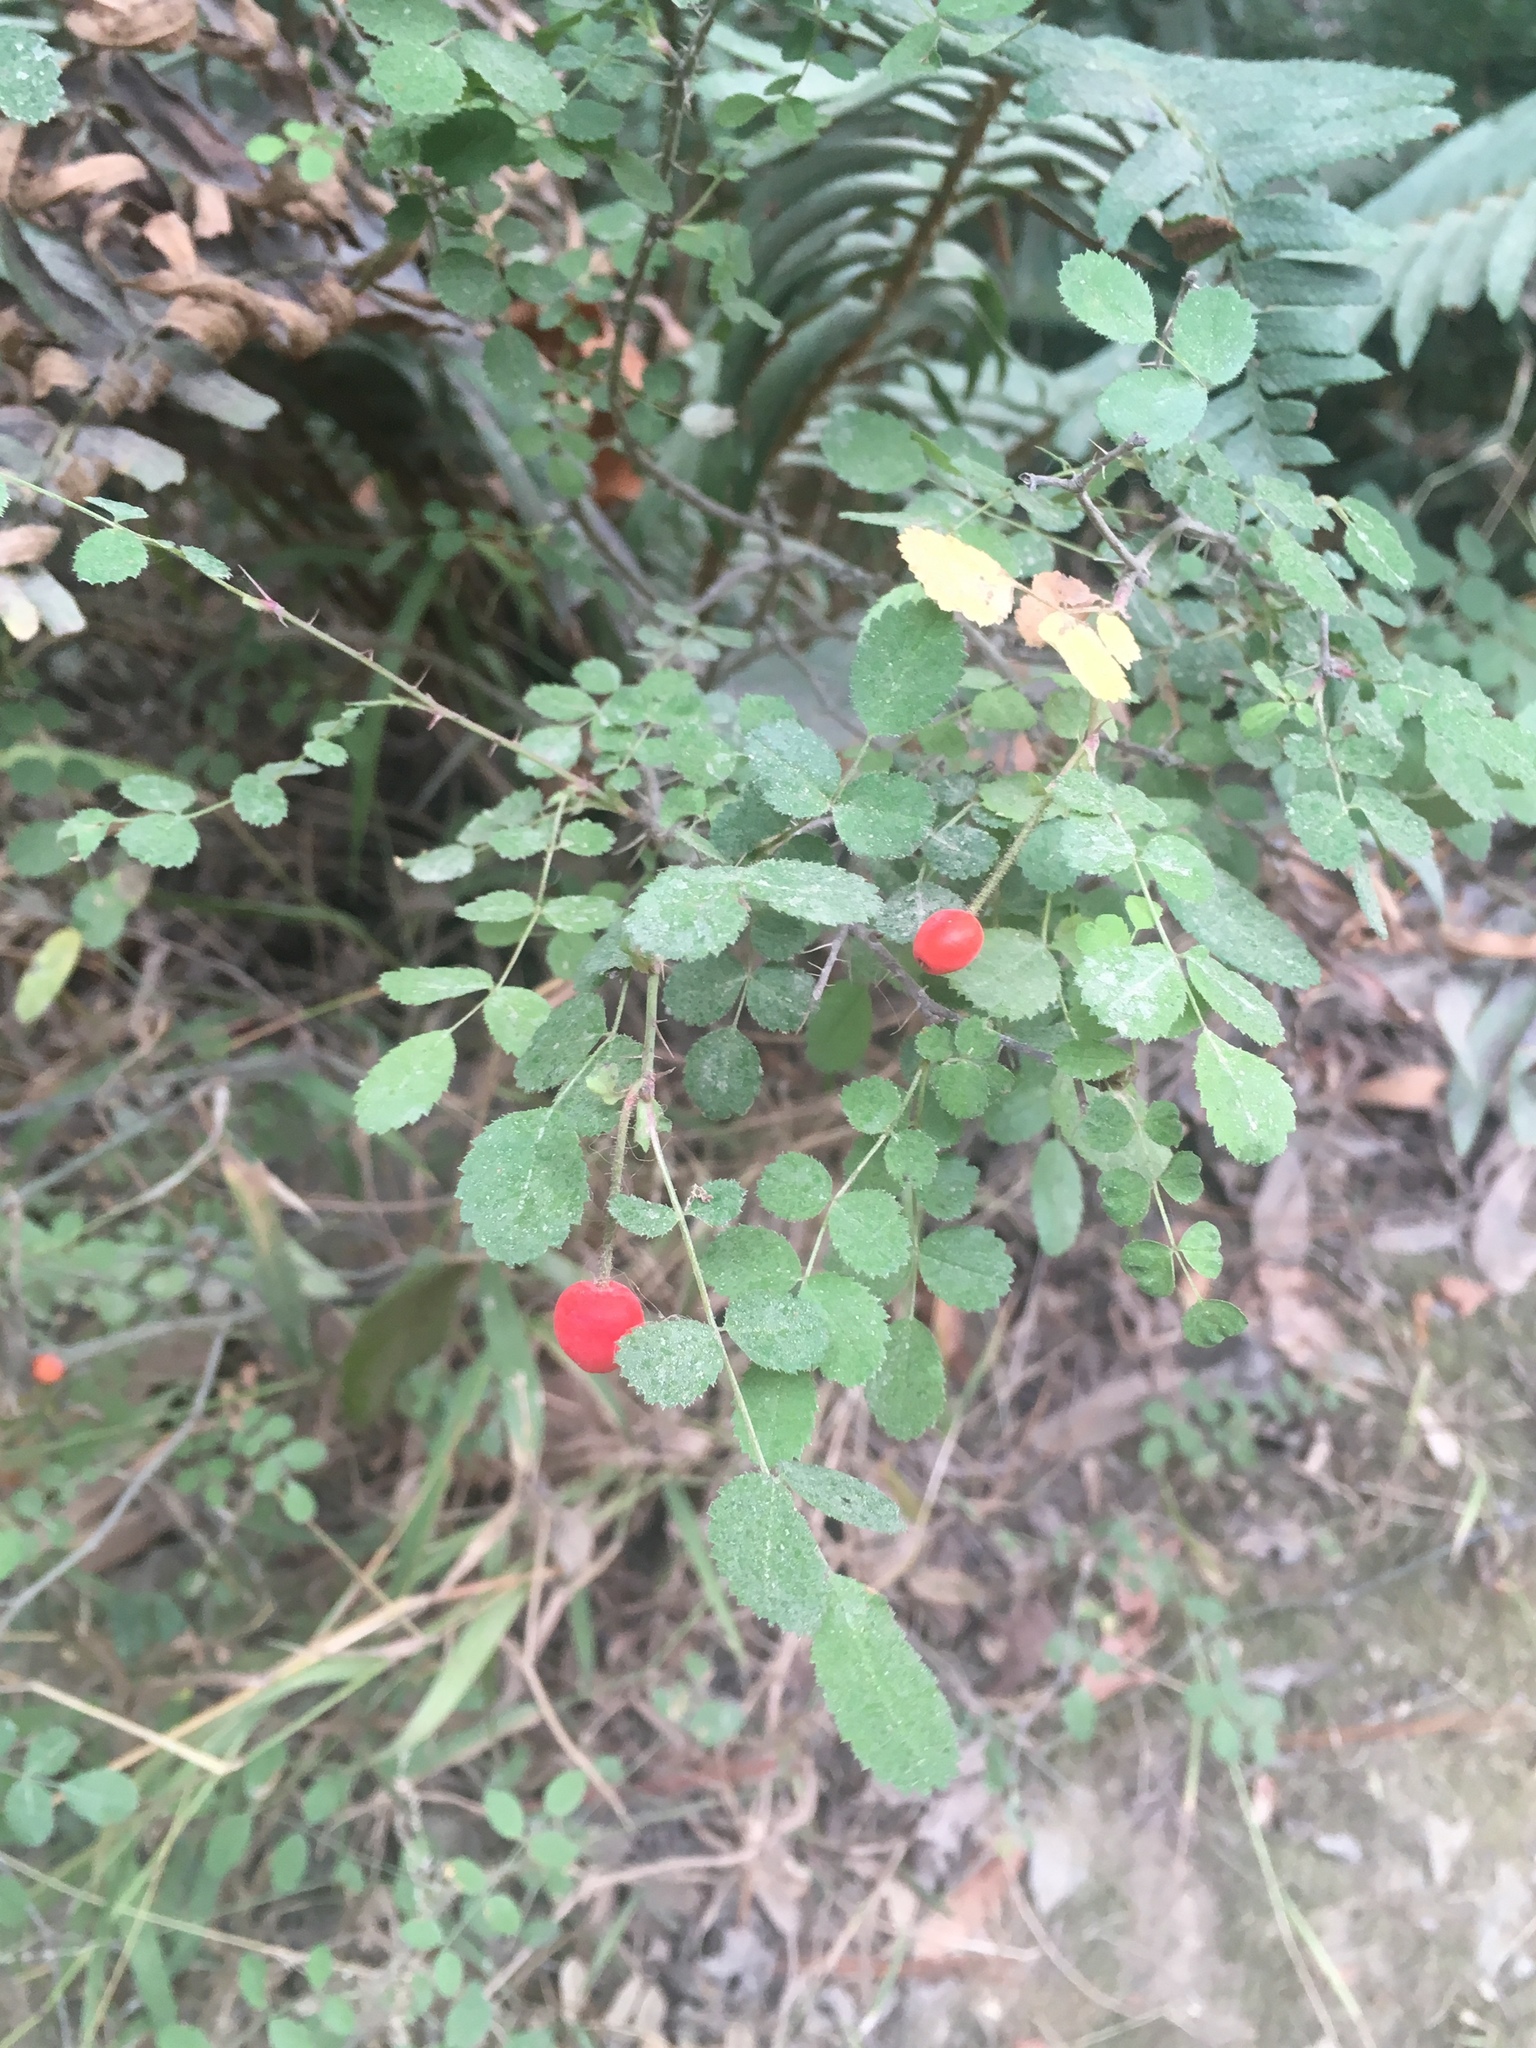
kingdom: Plantae
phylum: Tracheophyta
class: Magnoliopsida
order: Rosales
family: Rosaceae
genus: Rosa
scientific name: Rosa gymnocarpa
